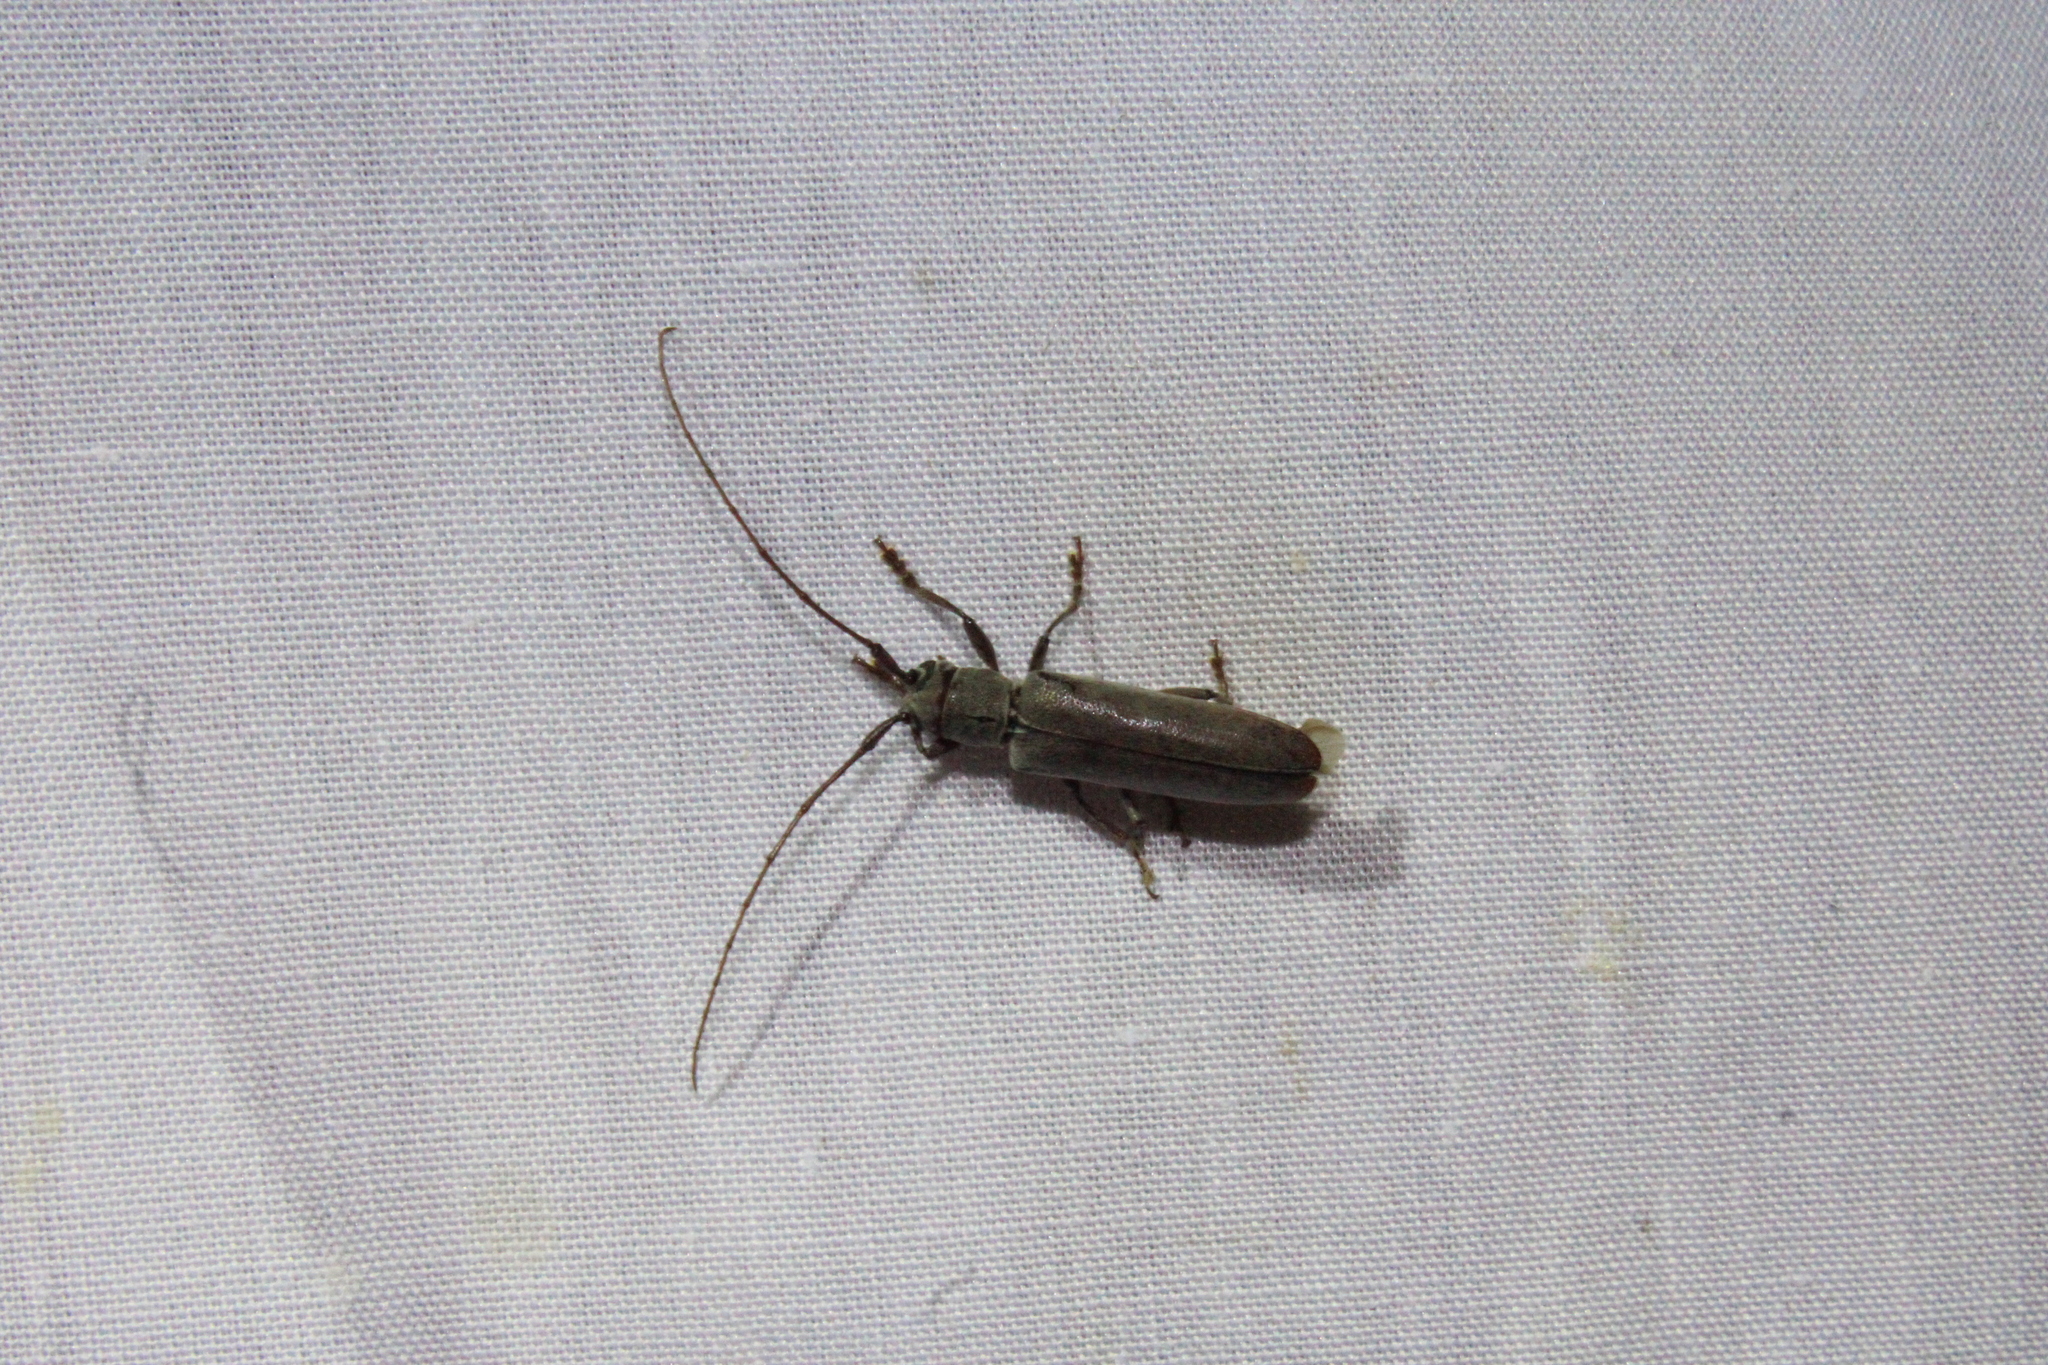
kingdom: Animalia
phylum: Arthropoda
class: Insecta
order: Coleoptera
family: Cerambycidae
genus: Hebestola
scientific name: Hebestola nebulosa
